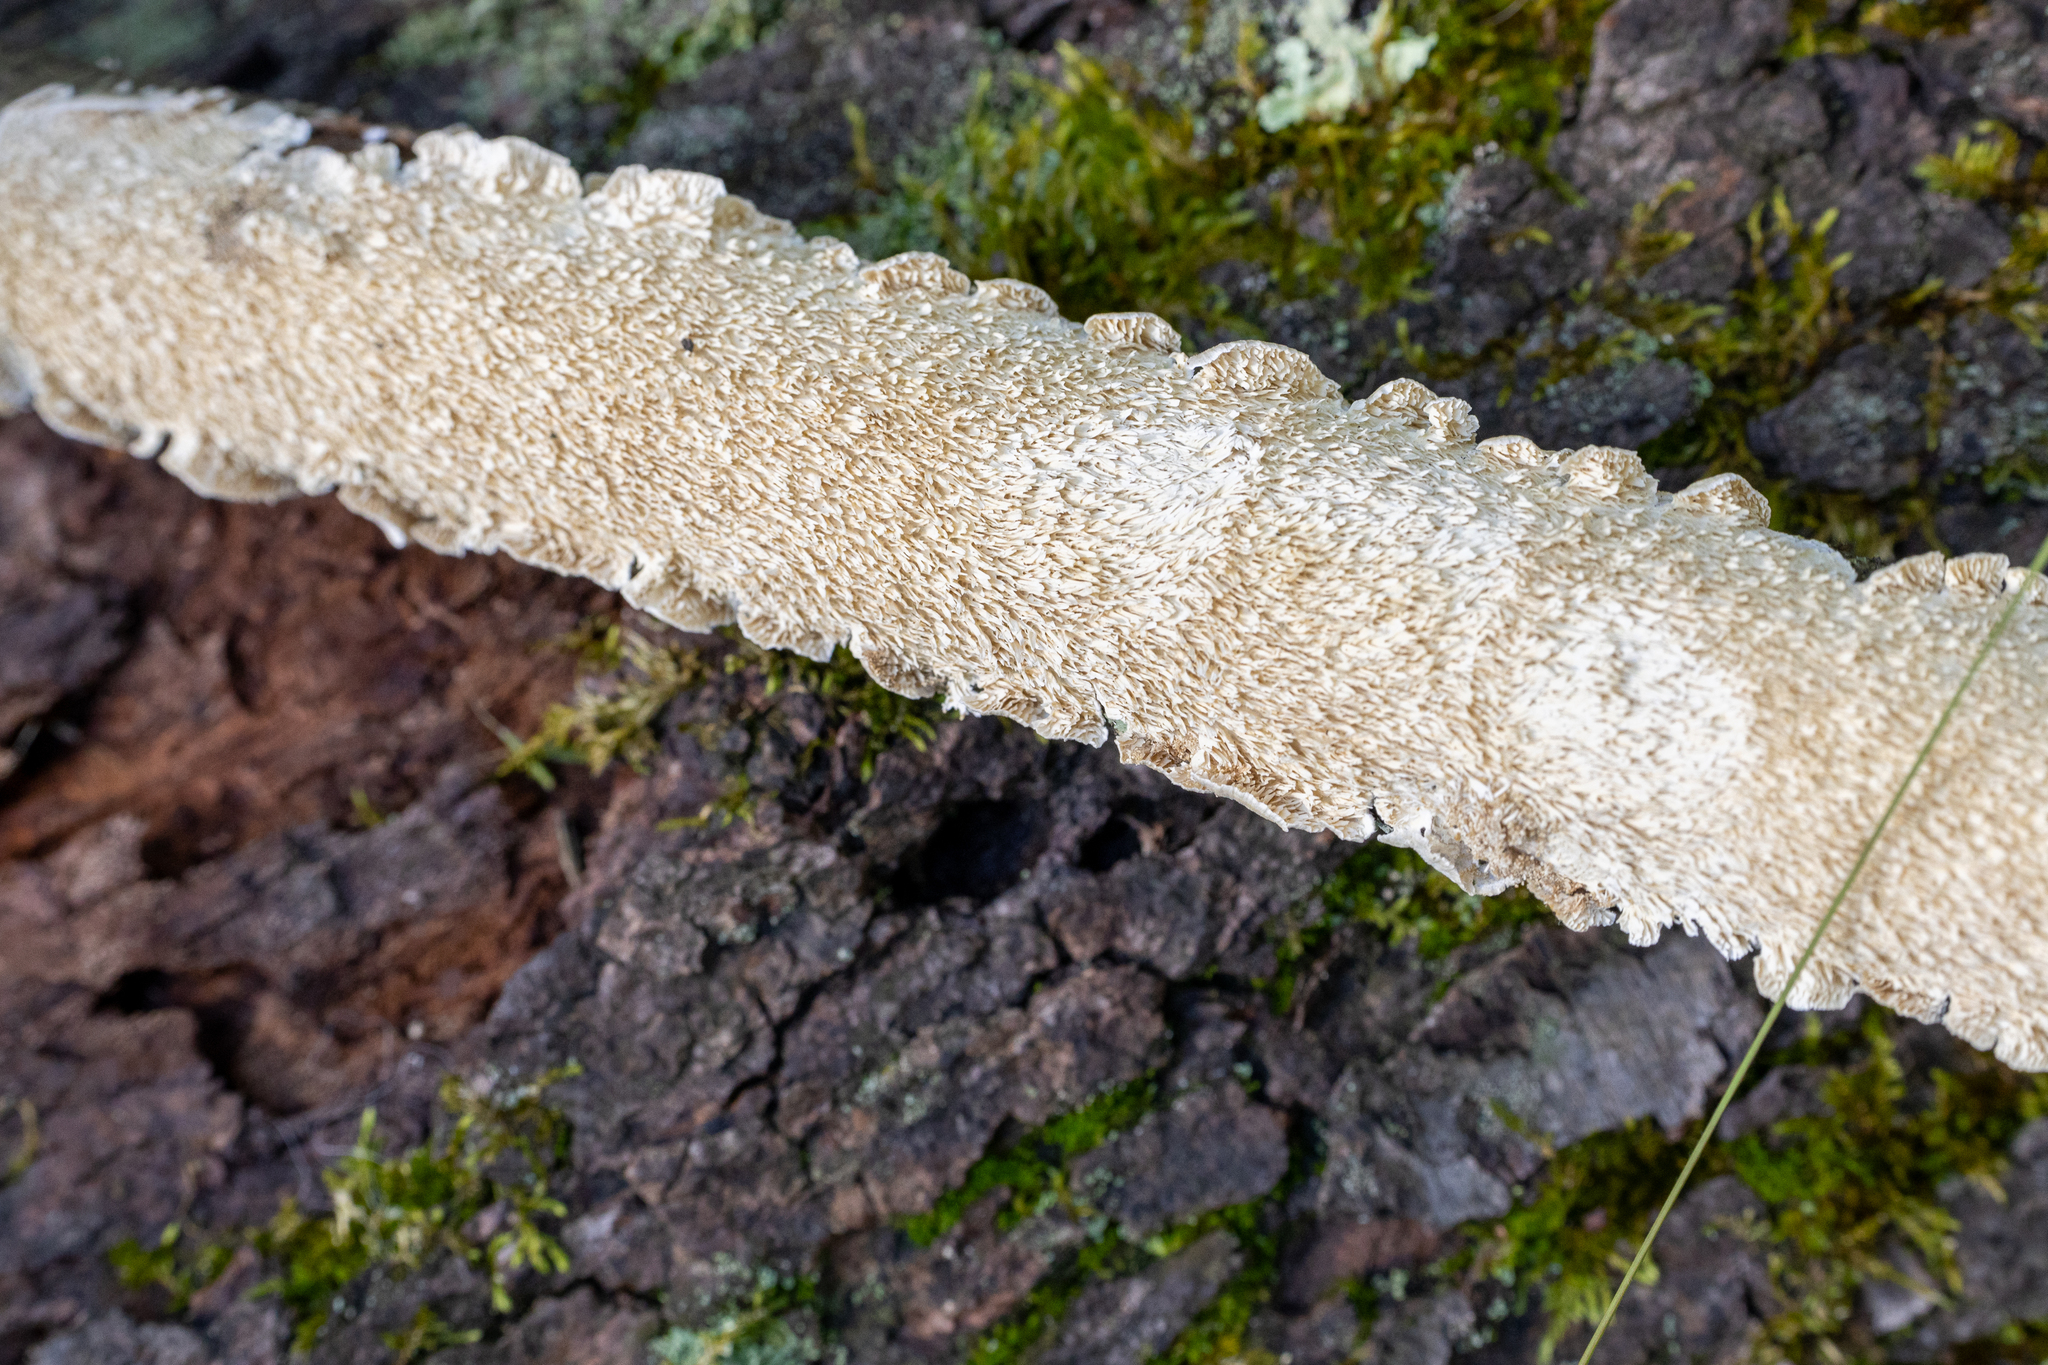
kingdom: Fungi
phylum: Basidiomycota
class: Agaricomycetes
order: Polyporales
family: Irpicaceae
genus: Irpex
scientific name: Irpex lacteus
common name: Milk-white toothed polypore
